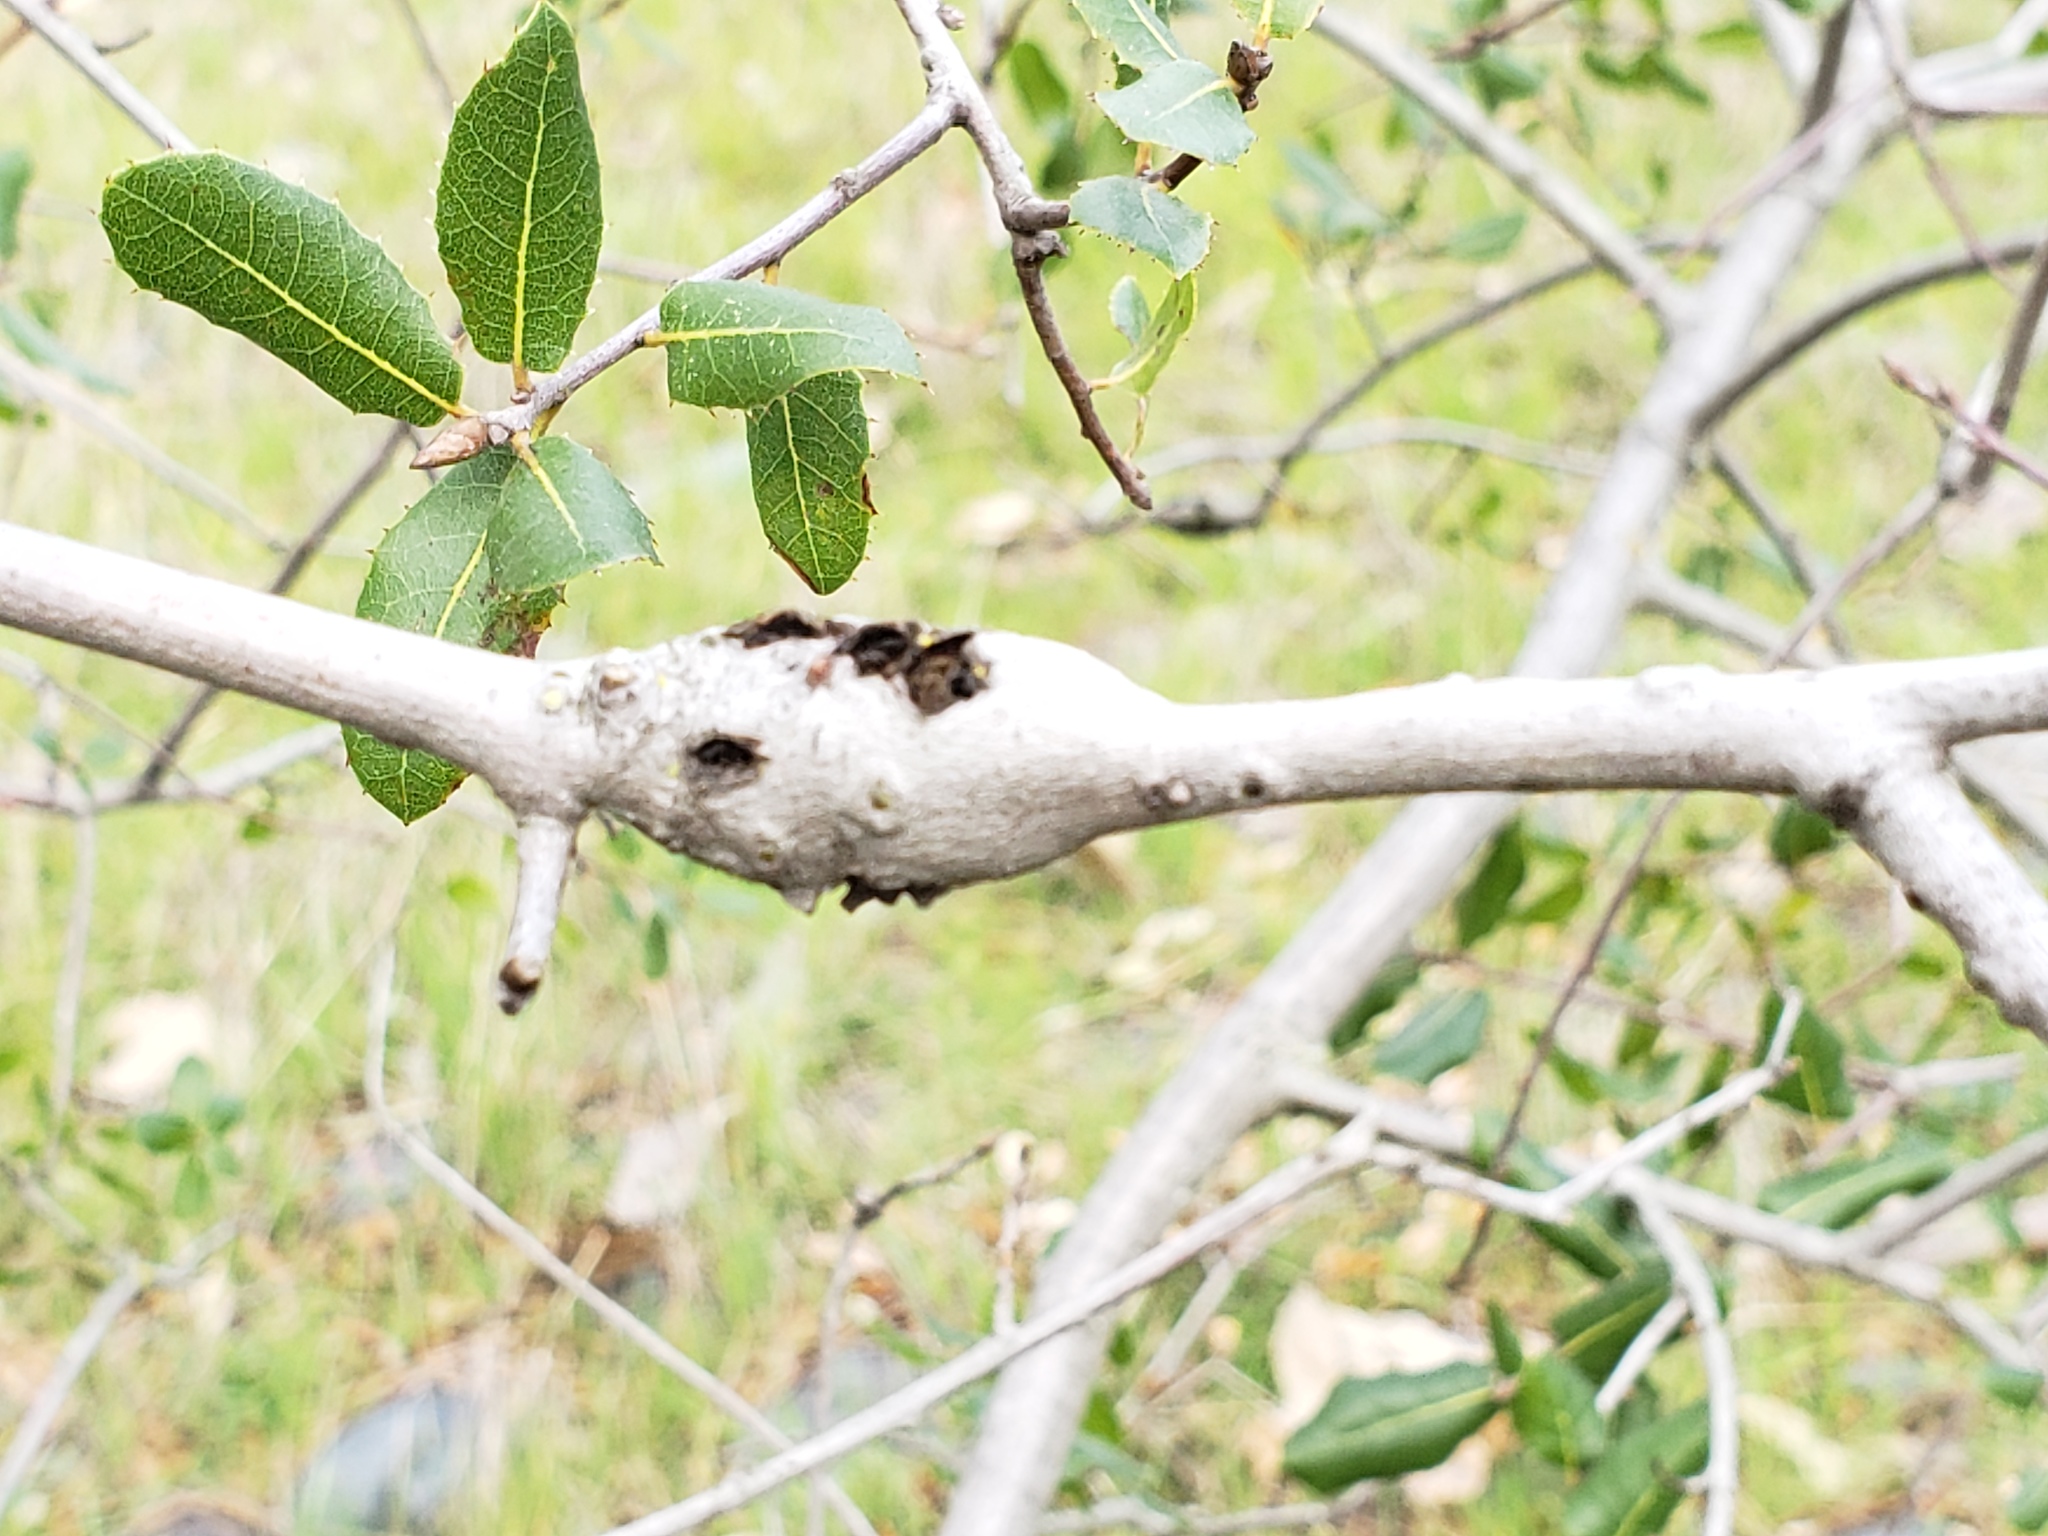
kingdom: Animalia
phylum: Arthropoda
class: Insecta
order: Hymenoptera
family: Cynipidae
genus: Callirhytis
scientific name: Callirhytis
